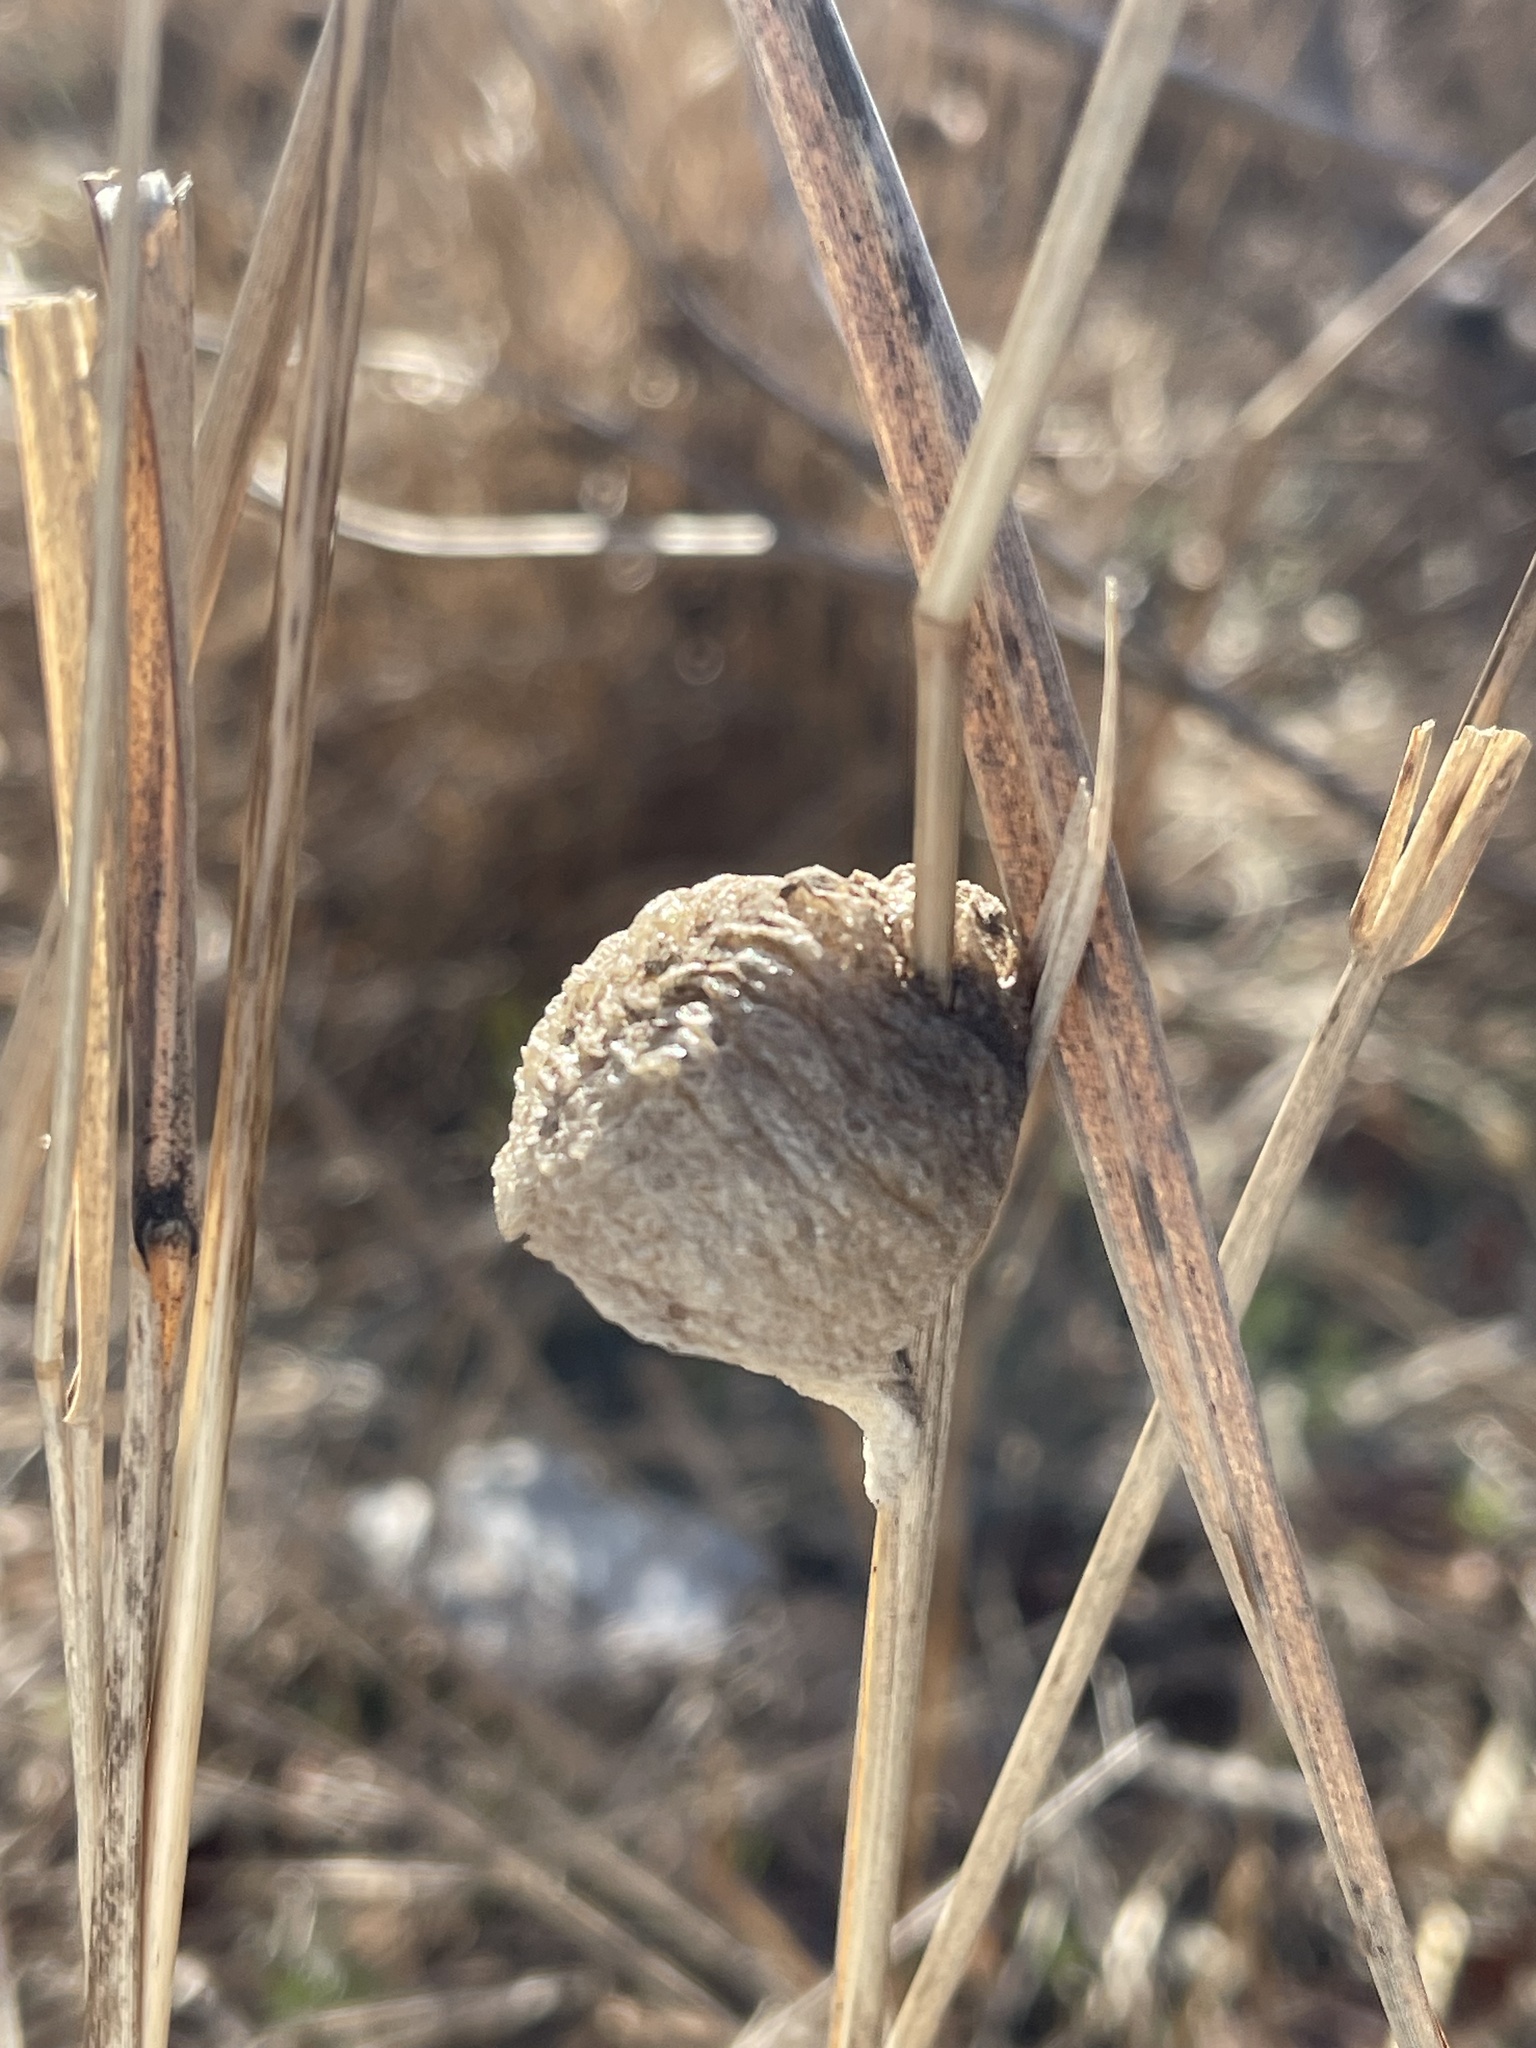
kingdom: Animalia
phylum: Arthropoda
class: Insecta
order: Mantodea
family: Mantidae
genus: Tenodera
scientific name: Tenodera sinensis
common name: Chinese mantis
